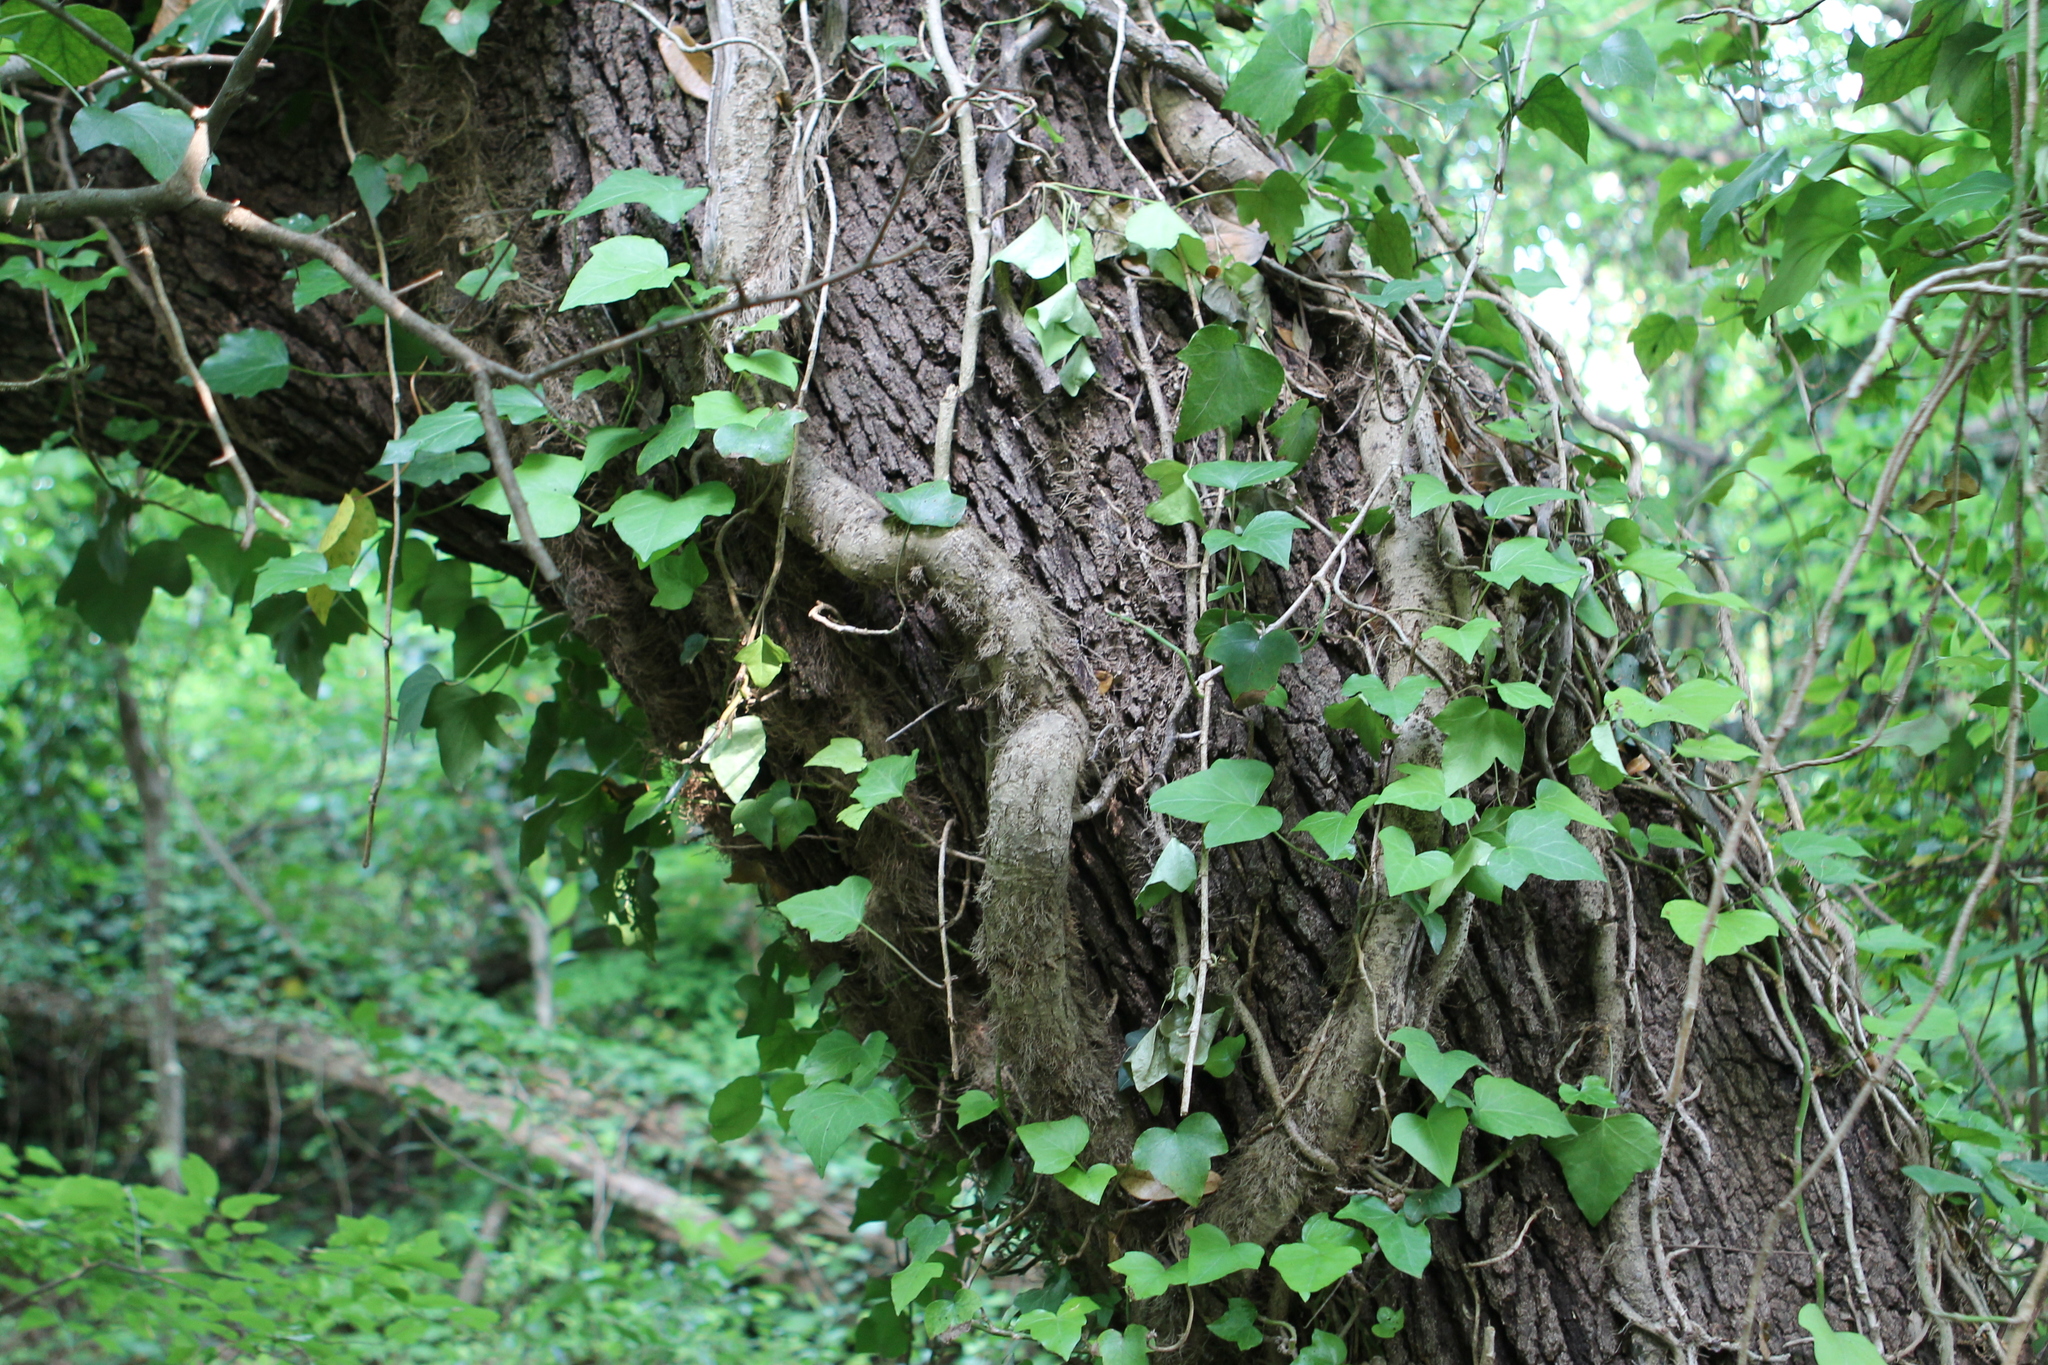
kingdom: Plantae
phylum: Tracheophyta
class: Magnoliopsida
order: Apiales
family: Araliaceae
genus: Hedera
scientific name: Hedera helix
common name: Ivy
